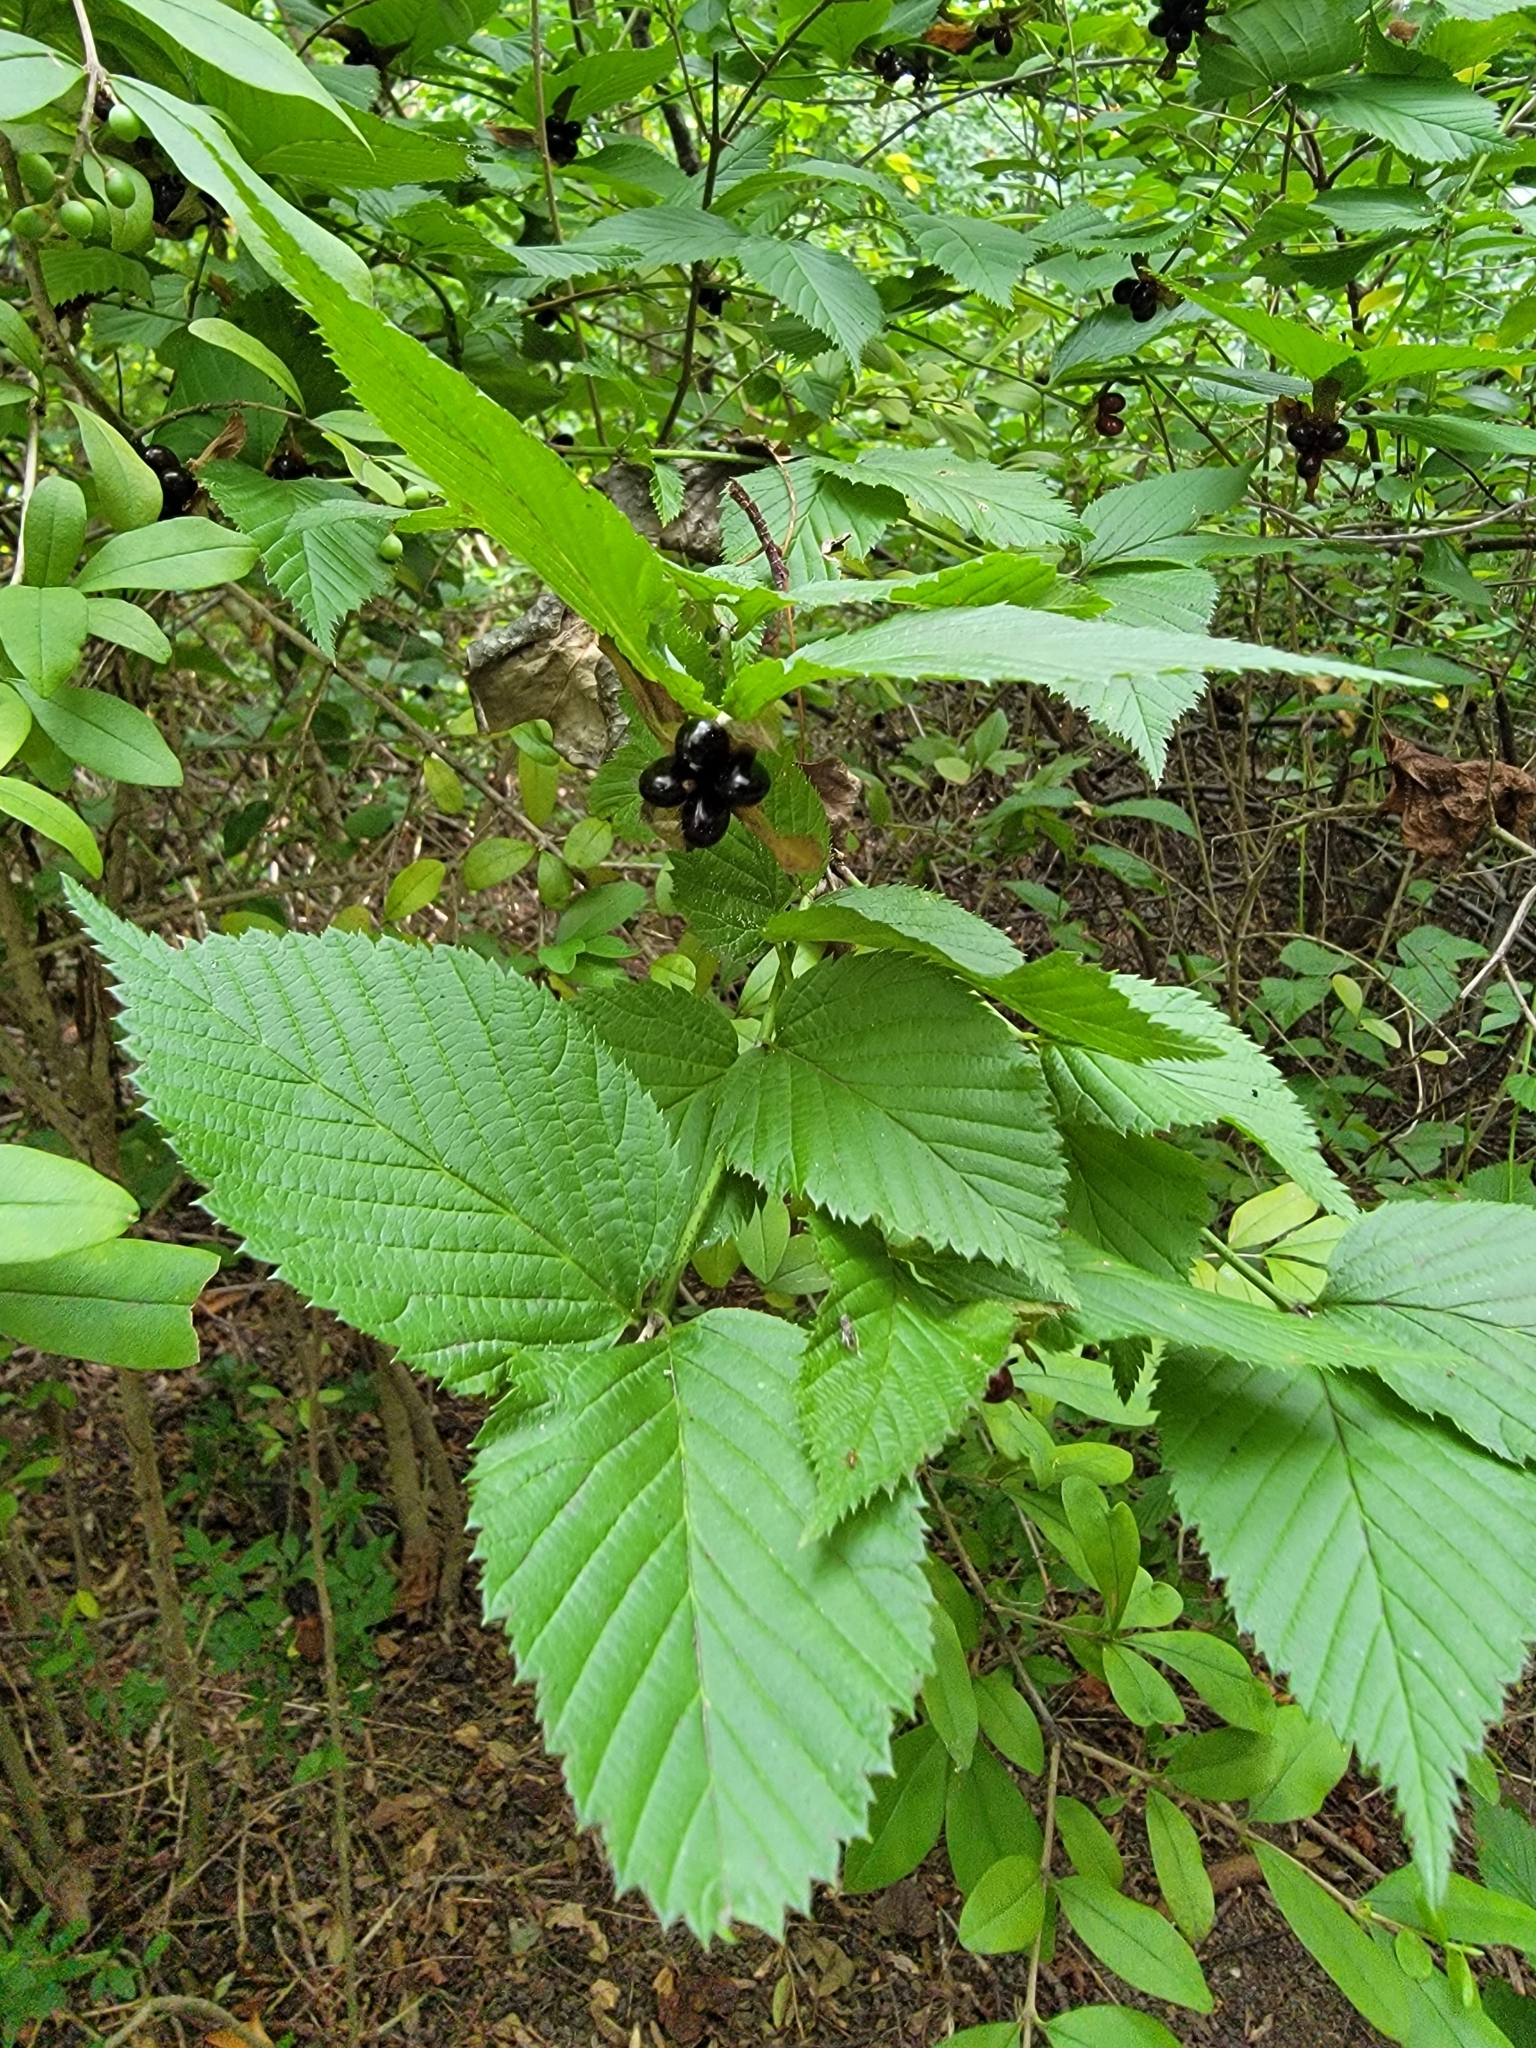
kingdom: Plantae
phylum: Tracheophyta
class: Magnoliopsida
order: Rosales
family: Rosaceae
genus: Rhodotypos
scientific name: Rhodotypos scandens
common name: Jetbead
